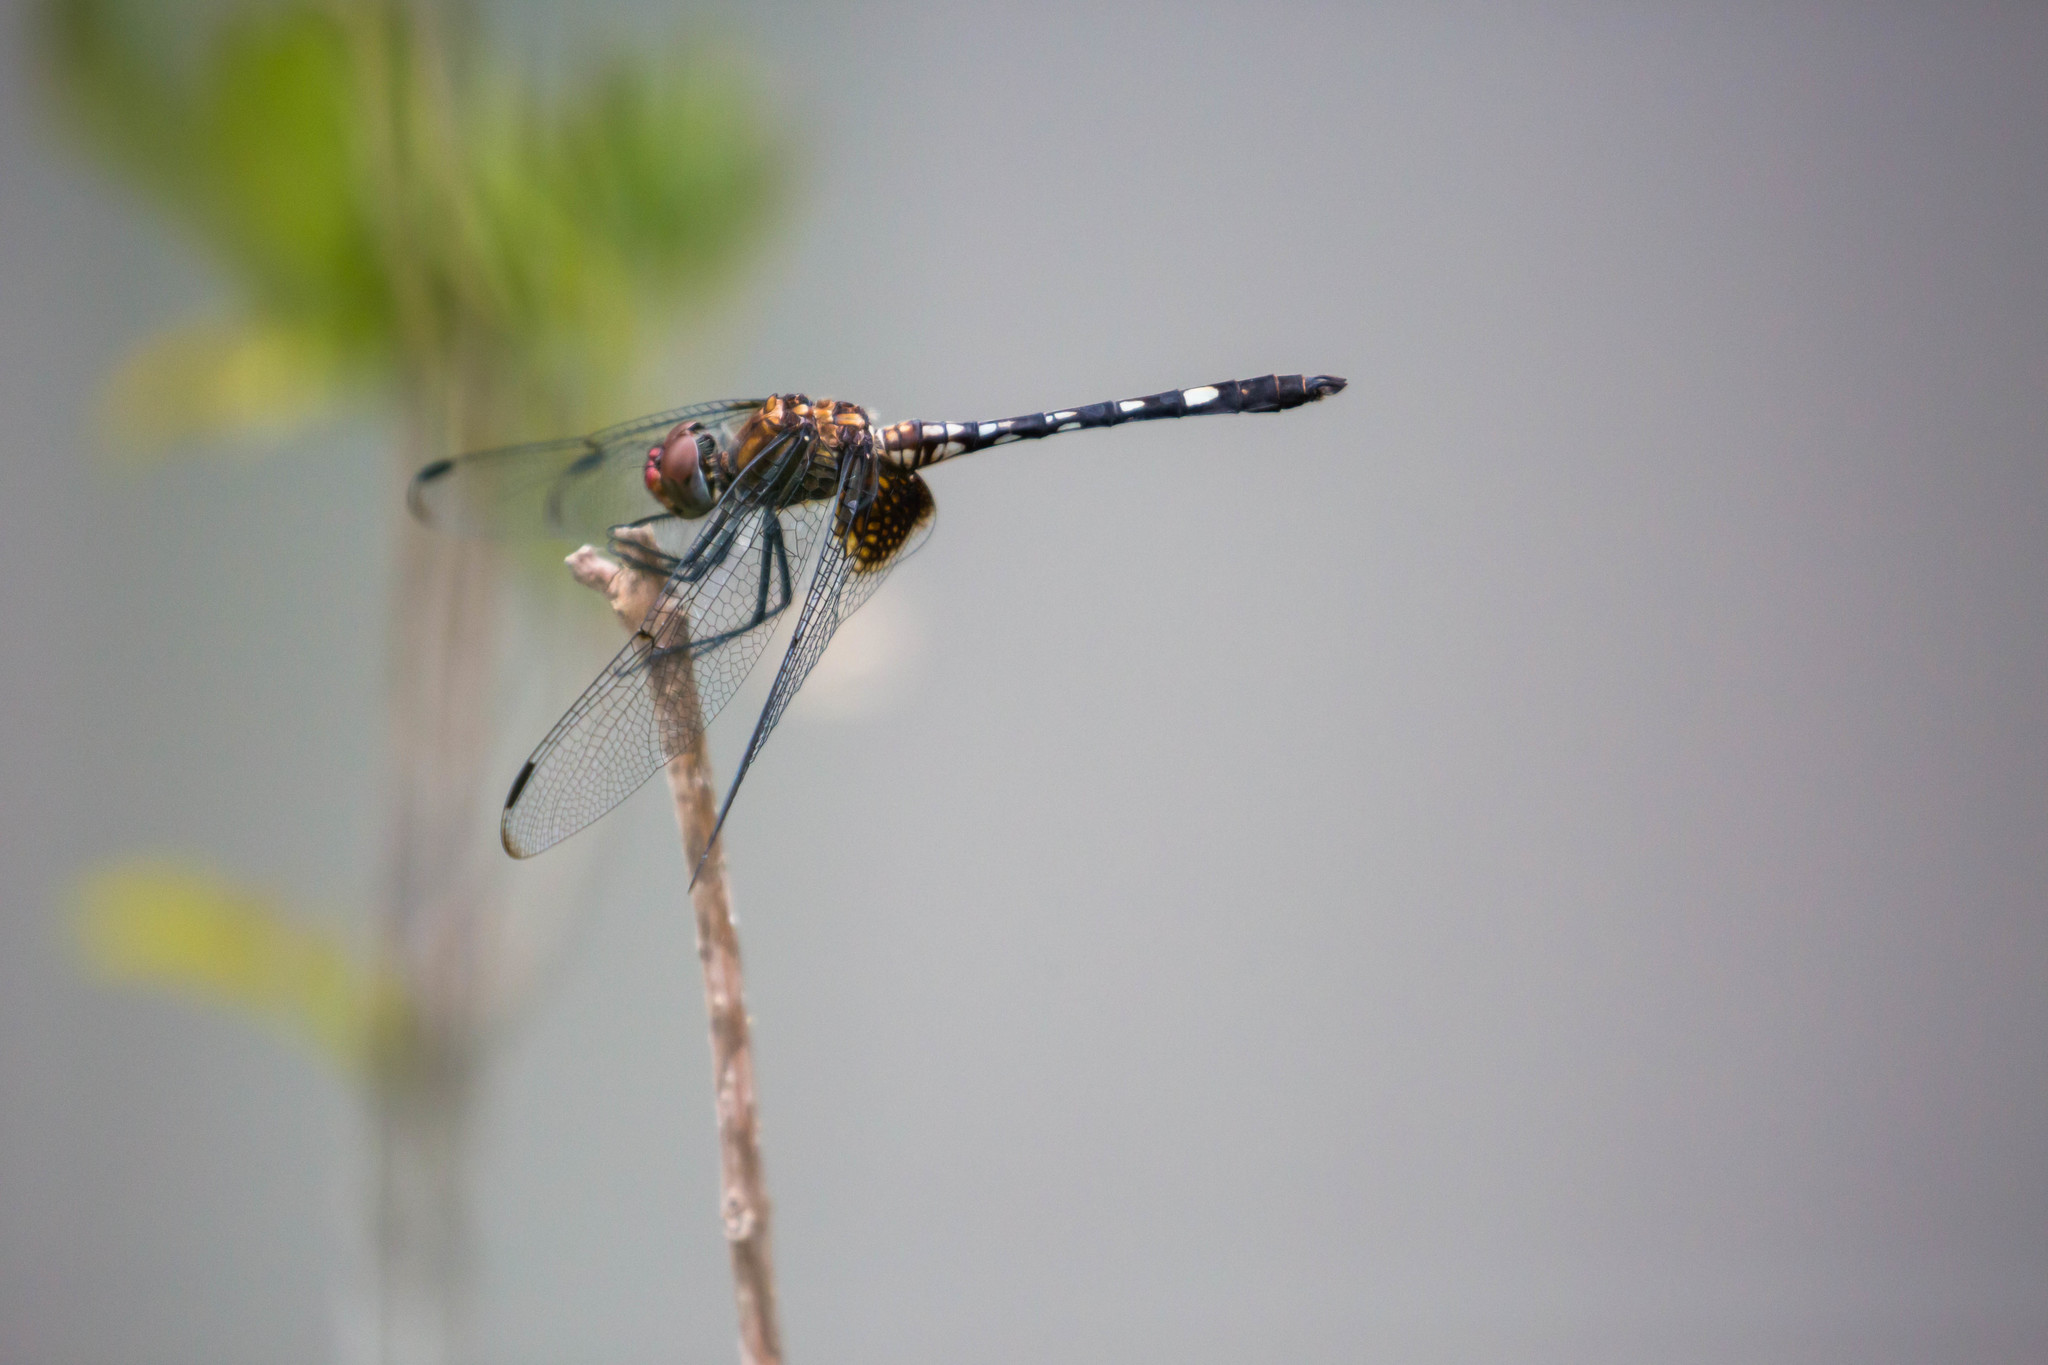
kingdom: Animalia
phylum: Arthropoda
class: Insecta
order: Odonata
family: Libellulidae
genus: Dythemis
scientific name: Dythemis fugax
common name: Checkered setwing
